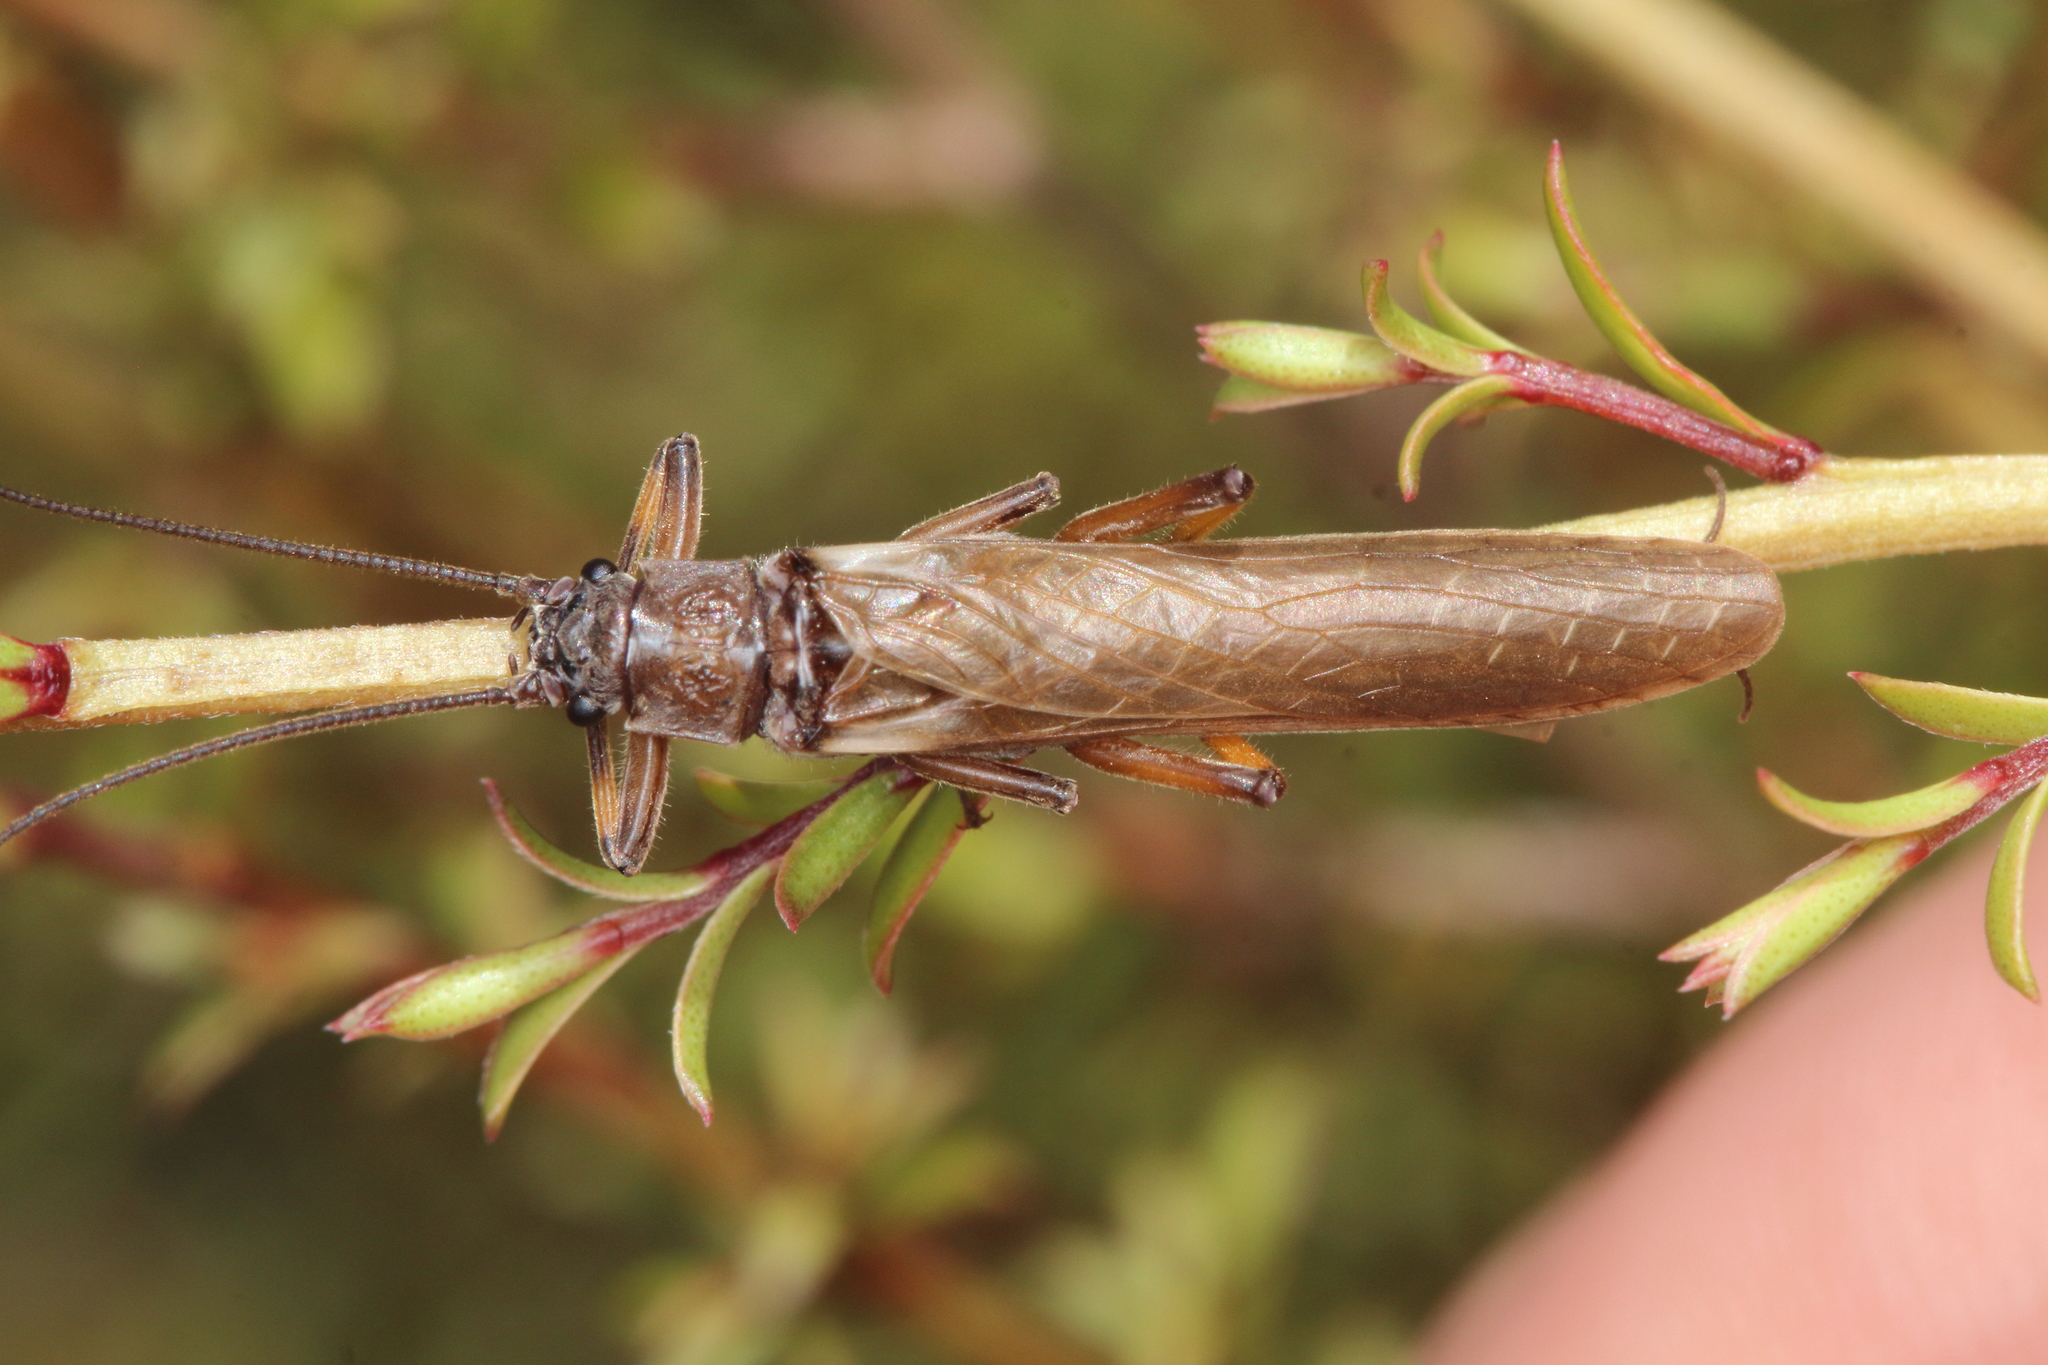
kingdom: Animalia
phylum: Arthropoda
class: Insecta
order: Plecoptera
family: Austroperlidae
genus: Austroperla
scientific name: Austroperla cyrene
